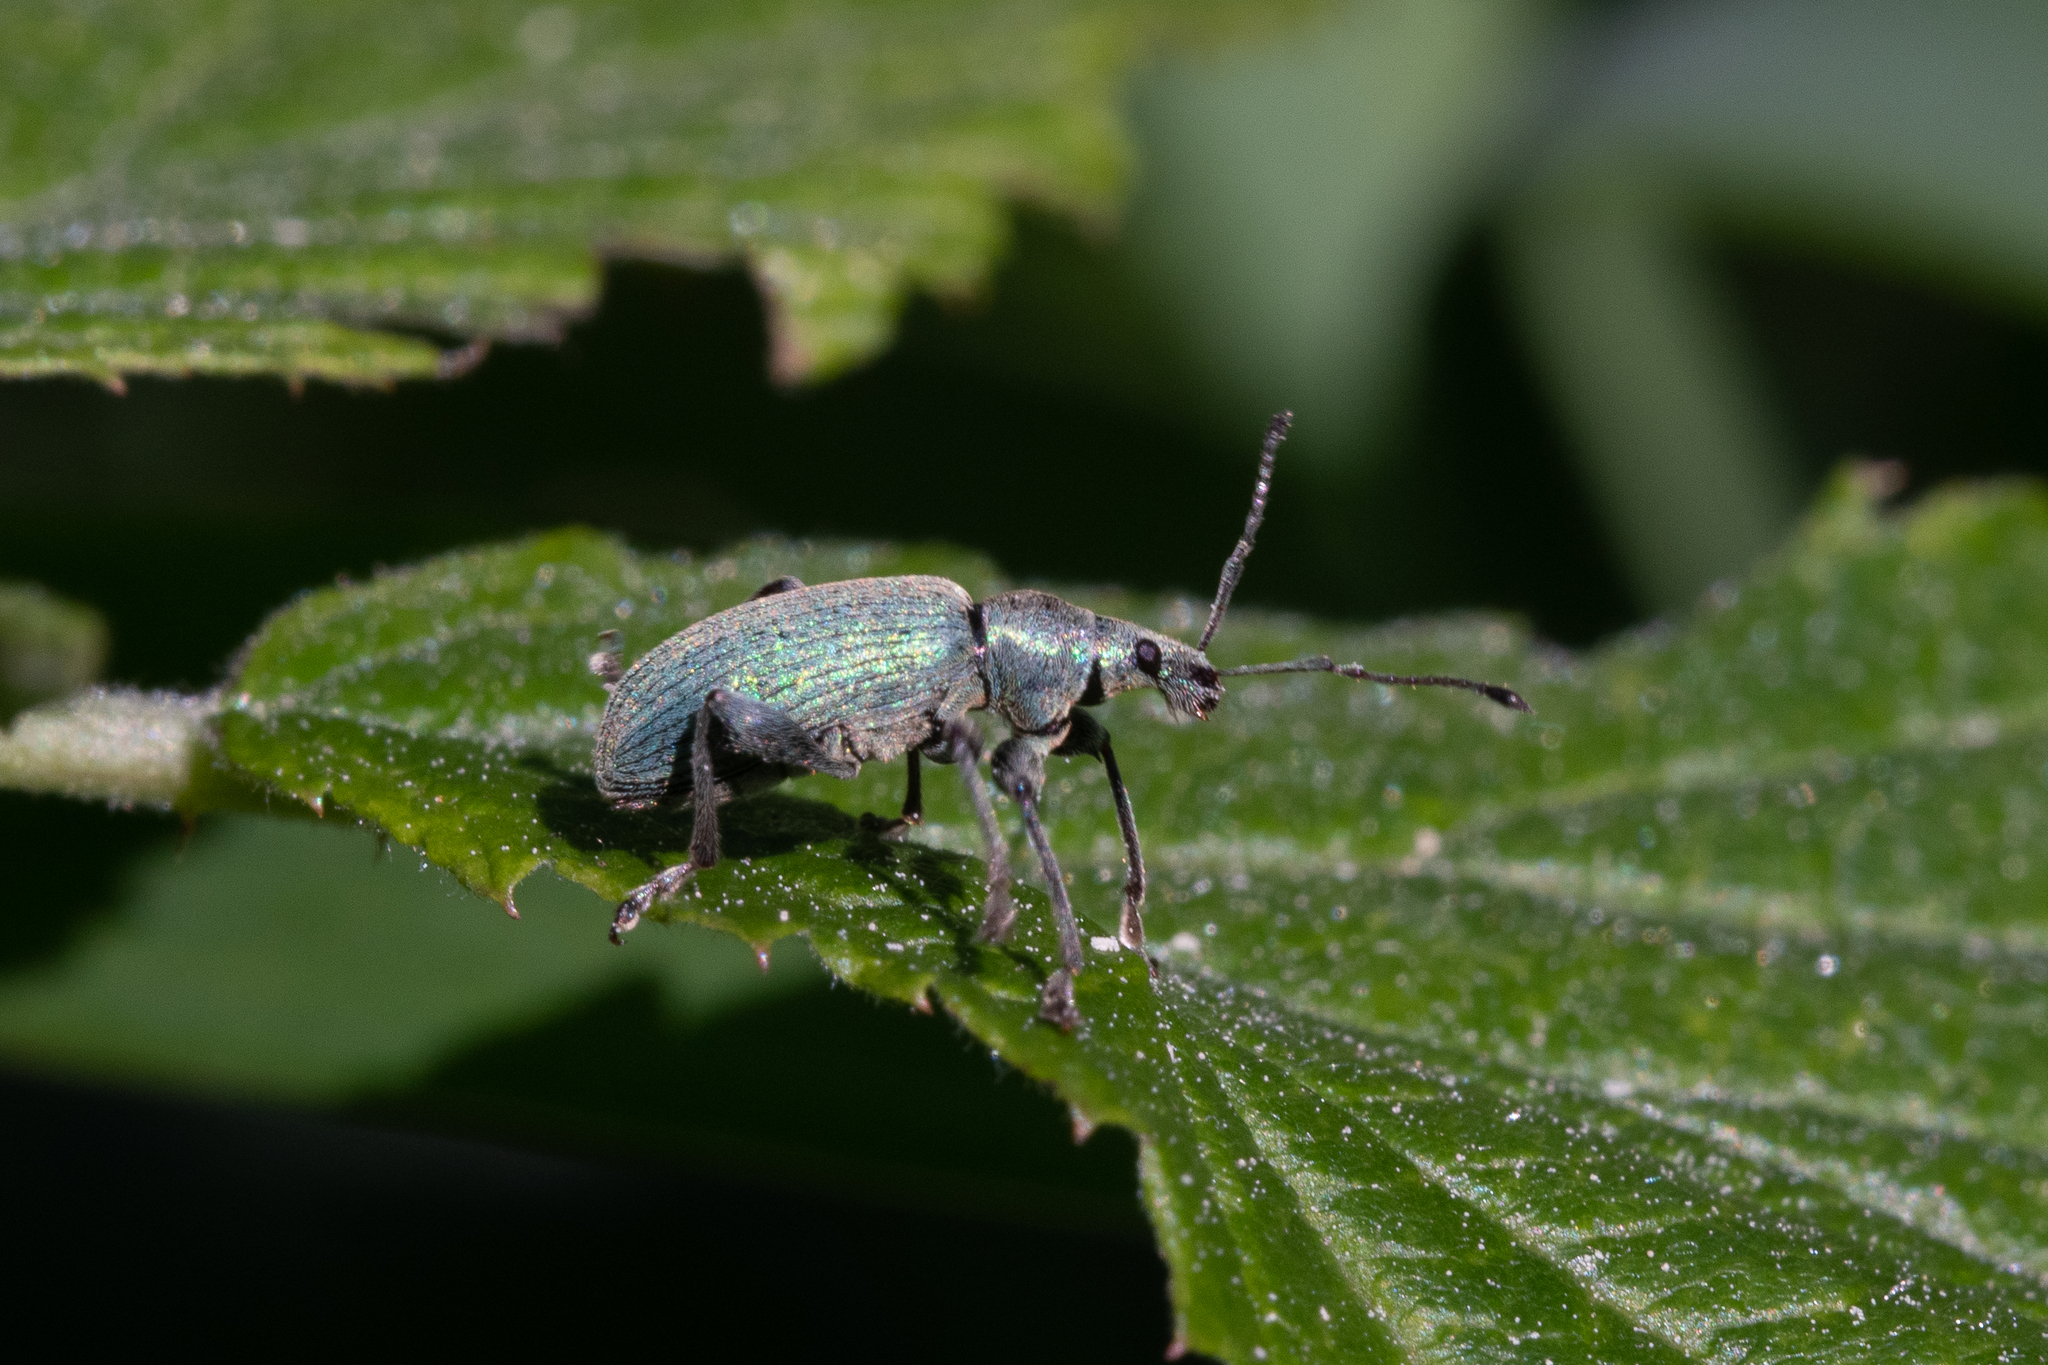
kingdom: Animalia
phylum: Arthropoda
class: Insecta
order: Coleoptera
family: Curculionidae
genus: Phyllobius
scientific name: Phyllobius pomaceus
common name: Green nettle weevil
